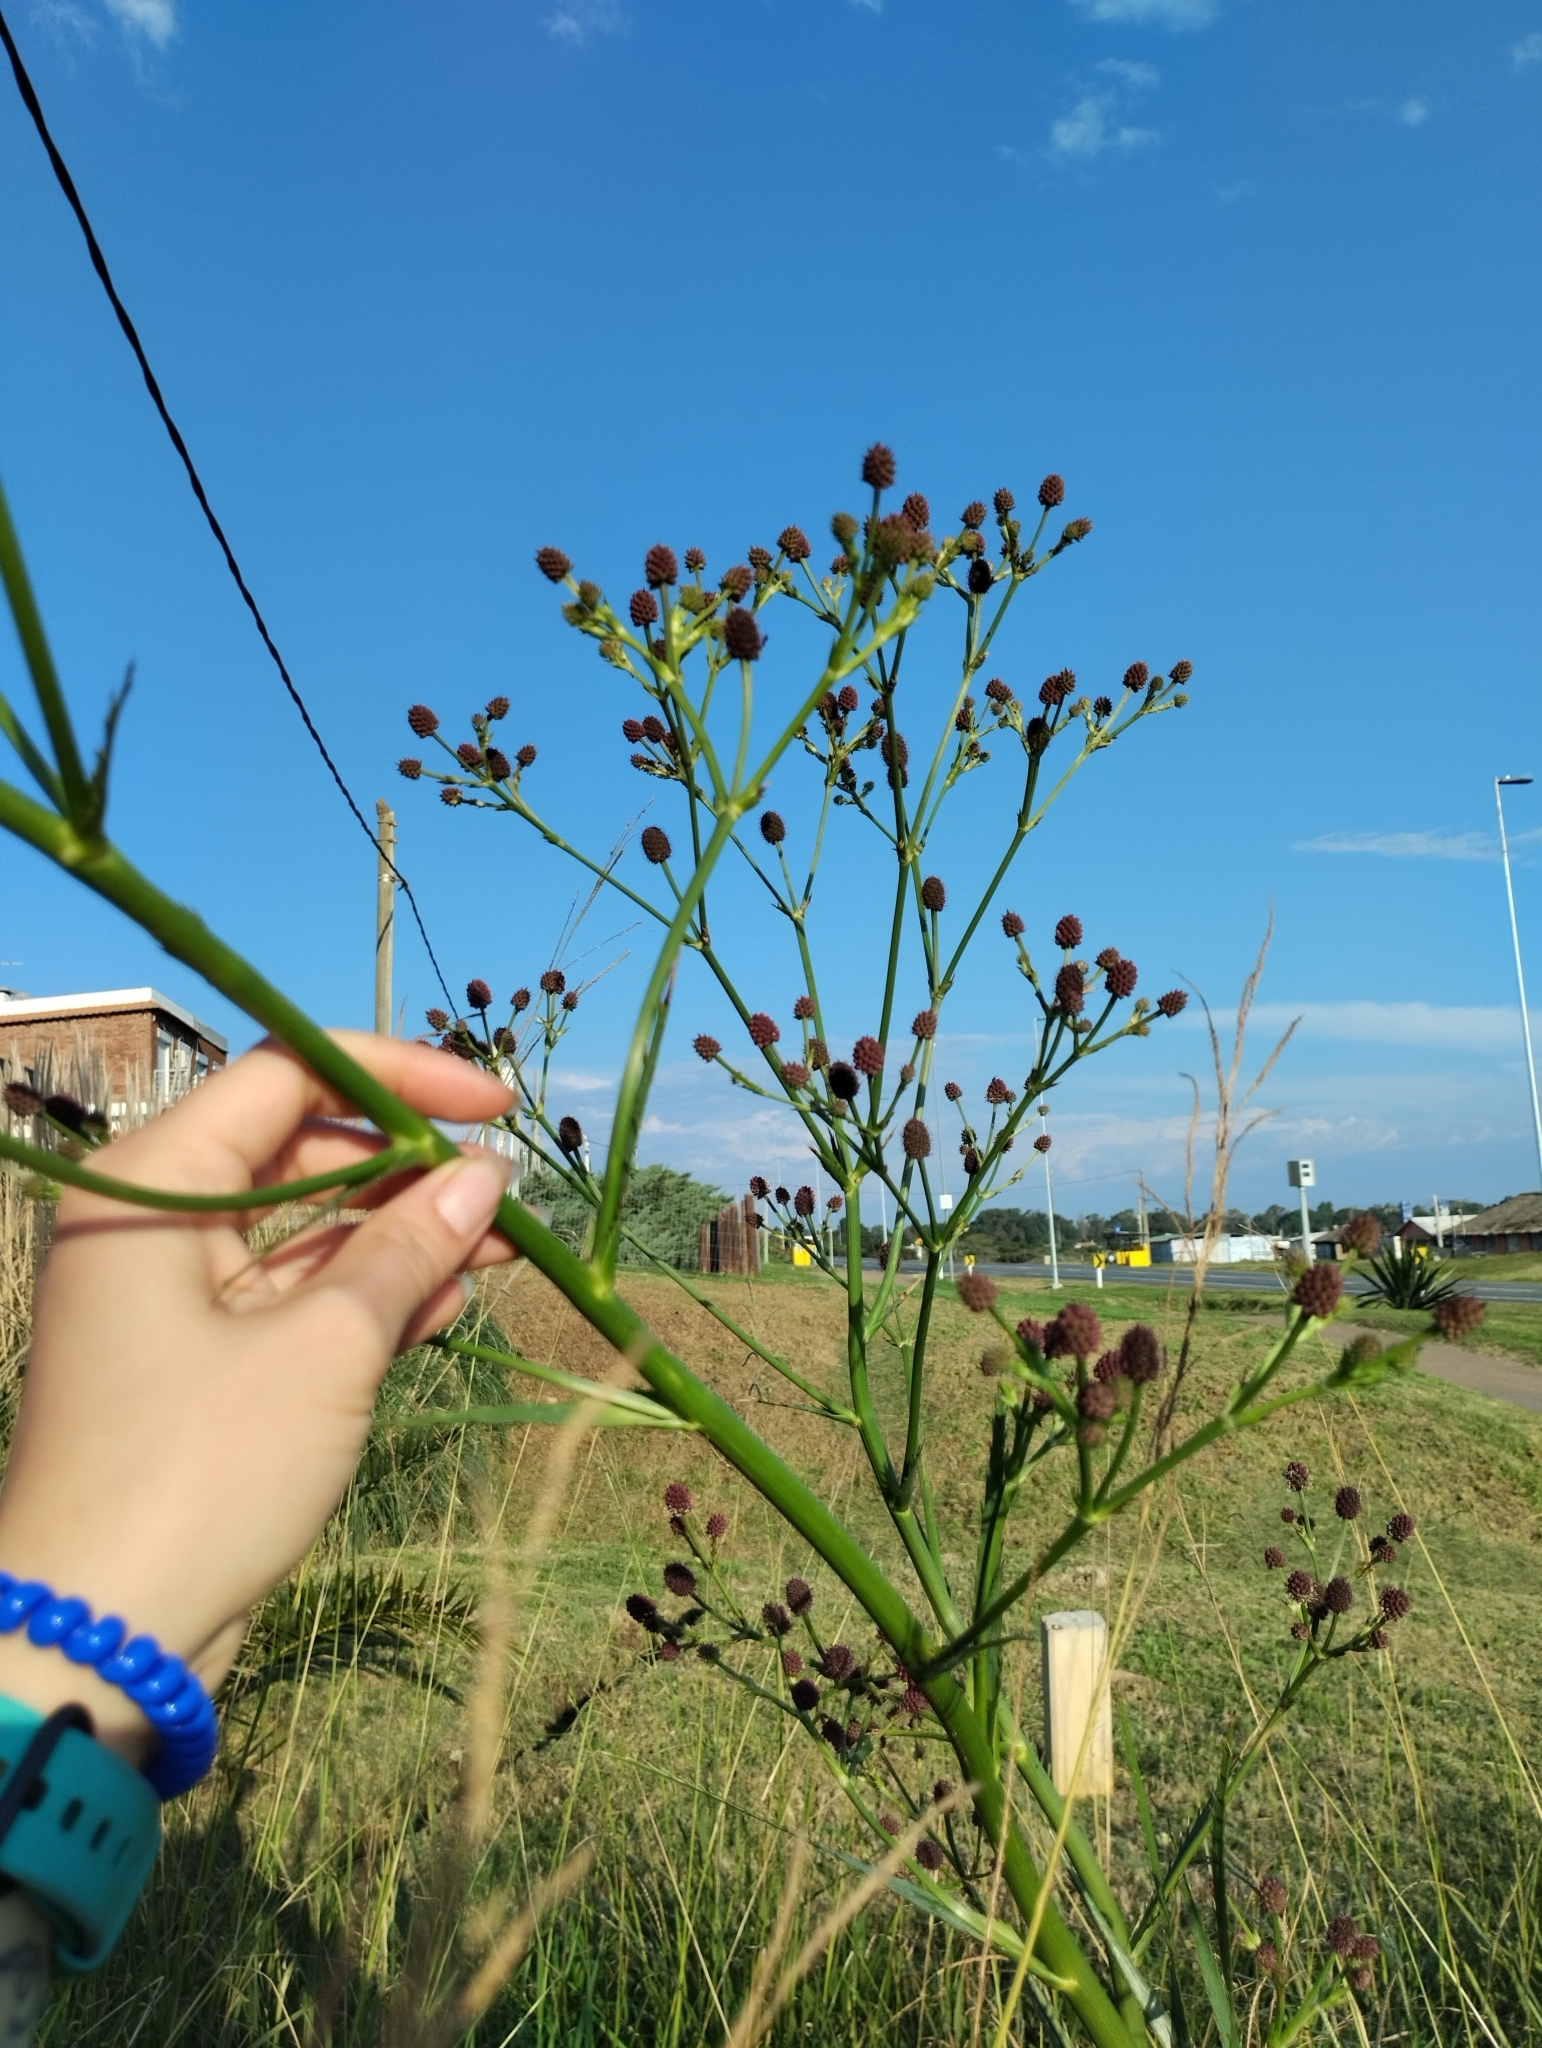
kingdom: Plantae
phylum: Tracheophyta
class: Magnoliopsida
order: Apiales
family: Apiaceae
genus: Eryngium
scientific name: Eryngium pandanifolium
